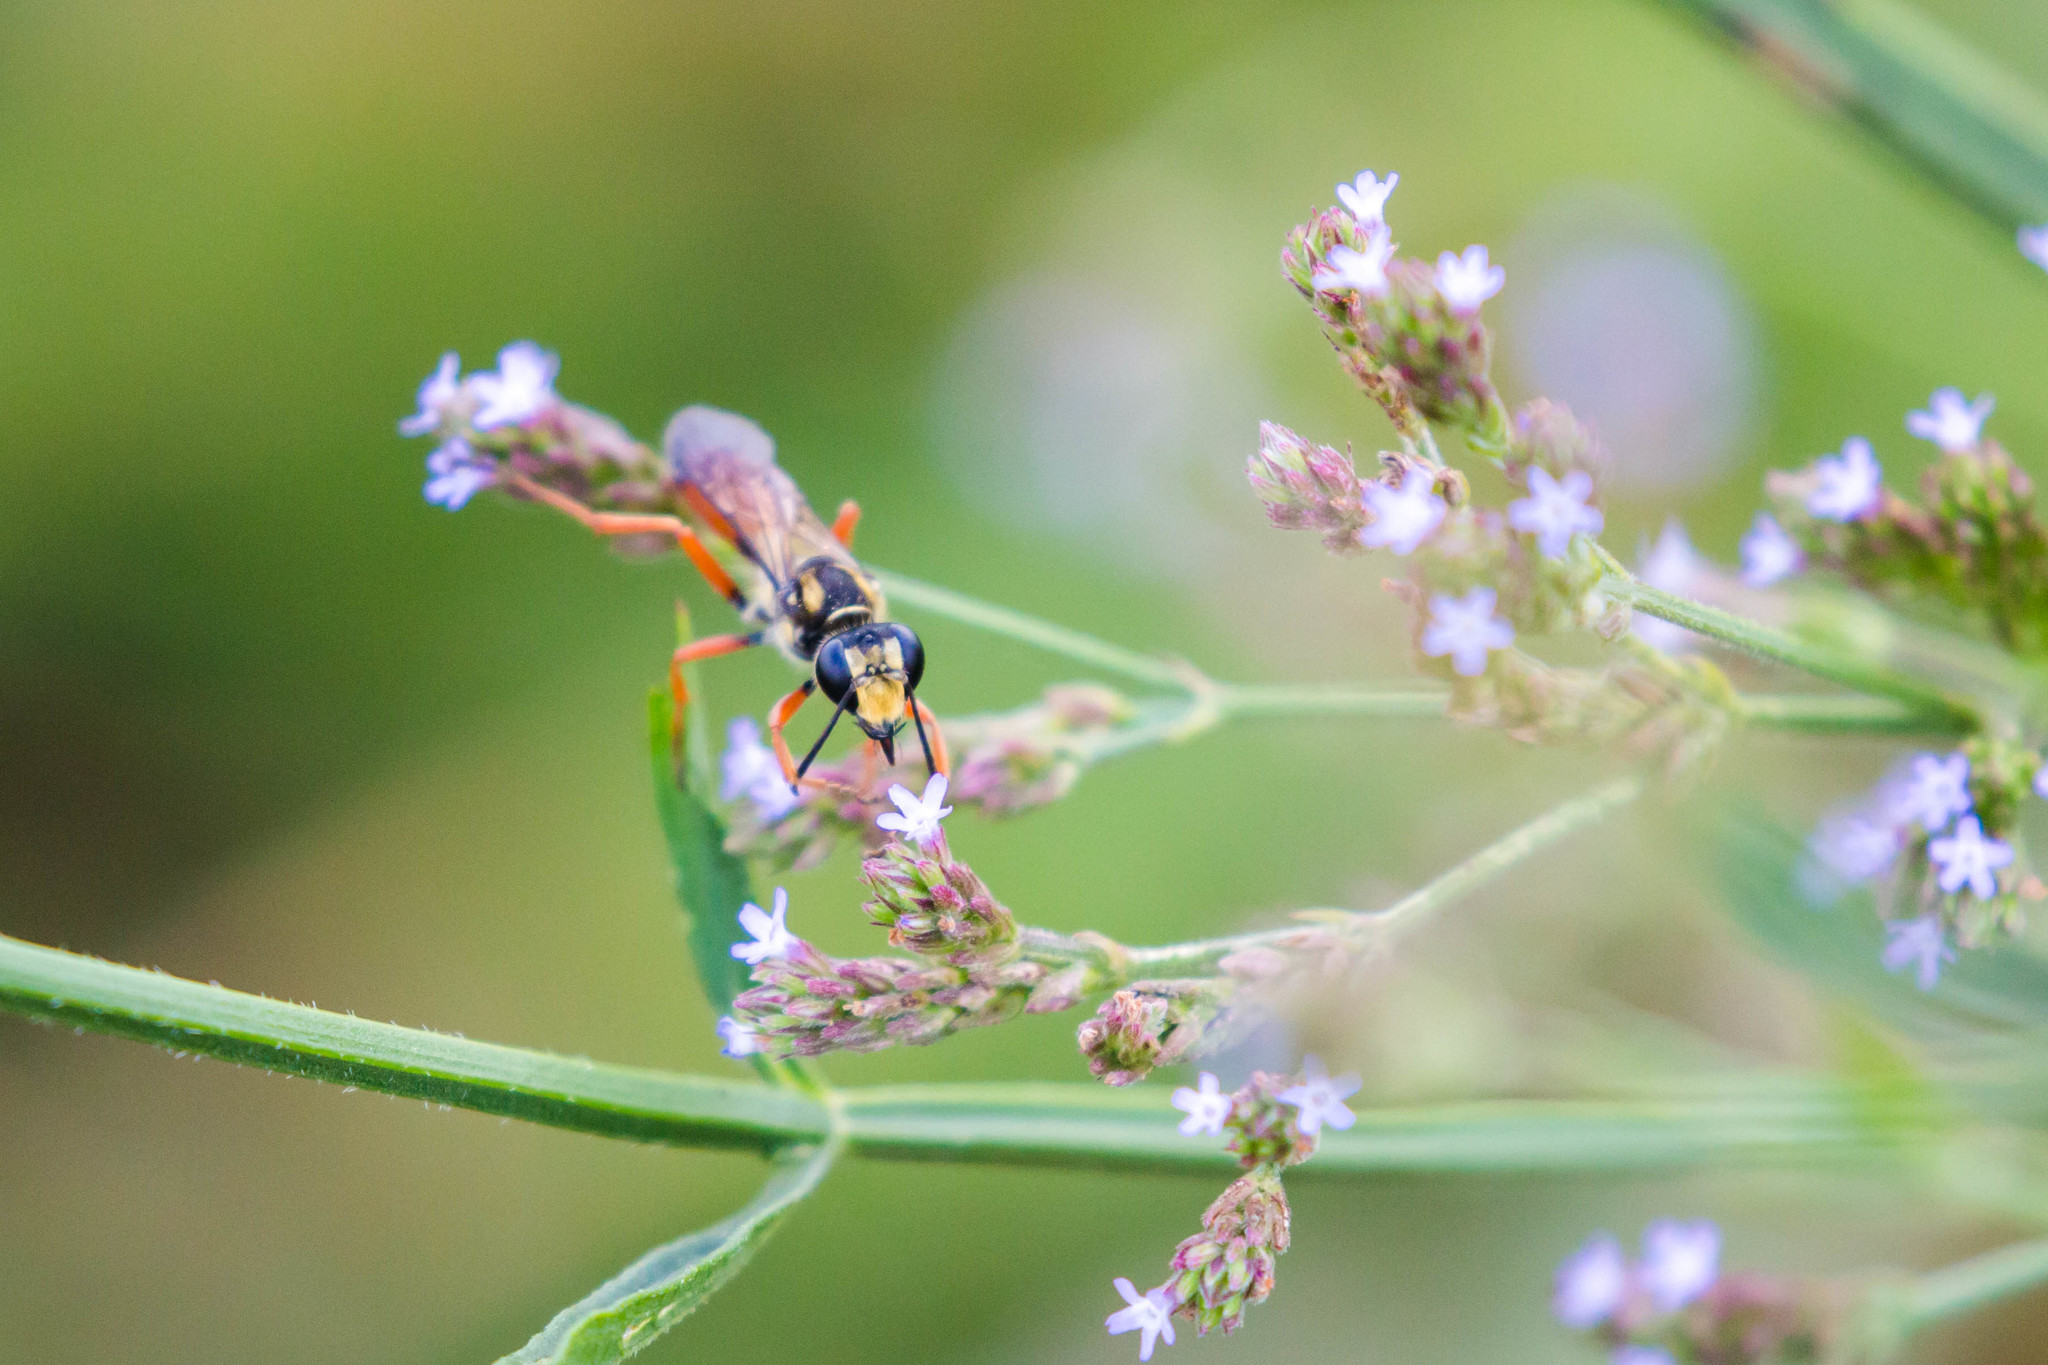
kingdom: Animalia
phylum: Arthropoda
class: Insecta
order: Hymenoptera
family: Sphecidae
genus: Sphex
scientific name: Sphex dorsalis
